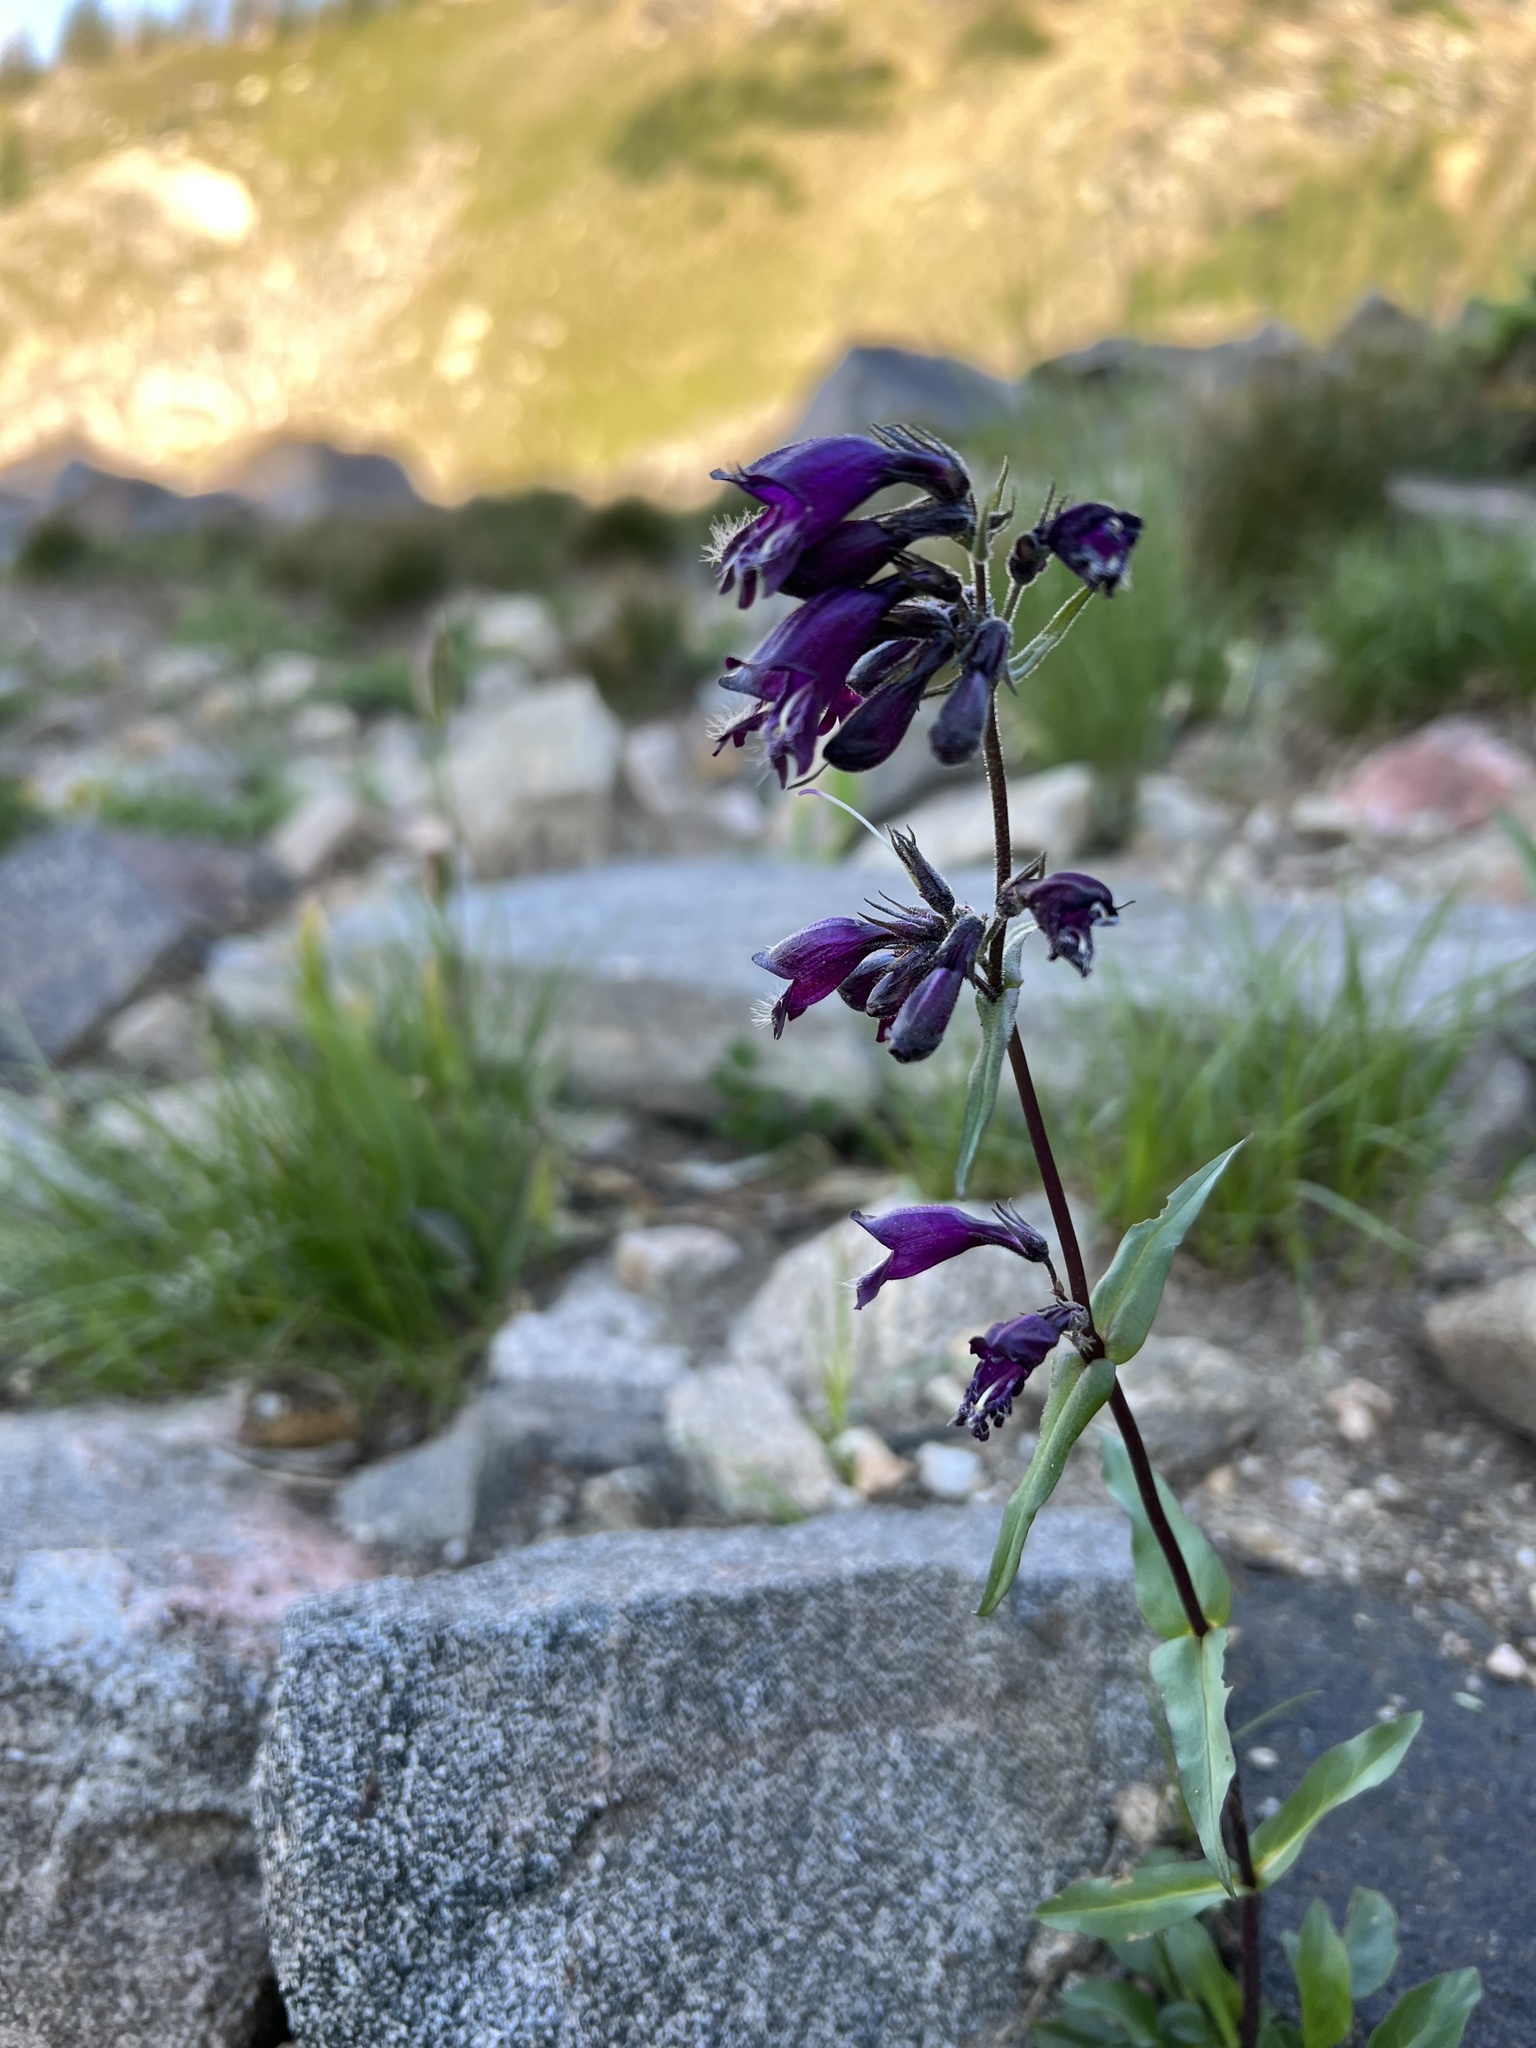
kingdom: Plantae
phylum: Tracheophyta
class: Magnoliopsida
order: Lamiales
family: Plantaginaceae
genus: Penstemon
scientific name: Penstemon whippleanus
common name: Whipple's penstemon
